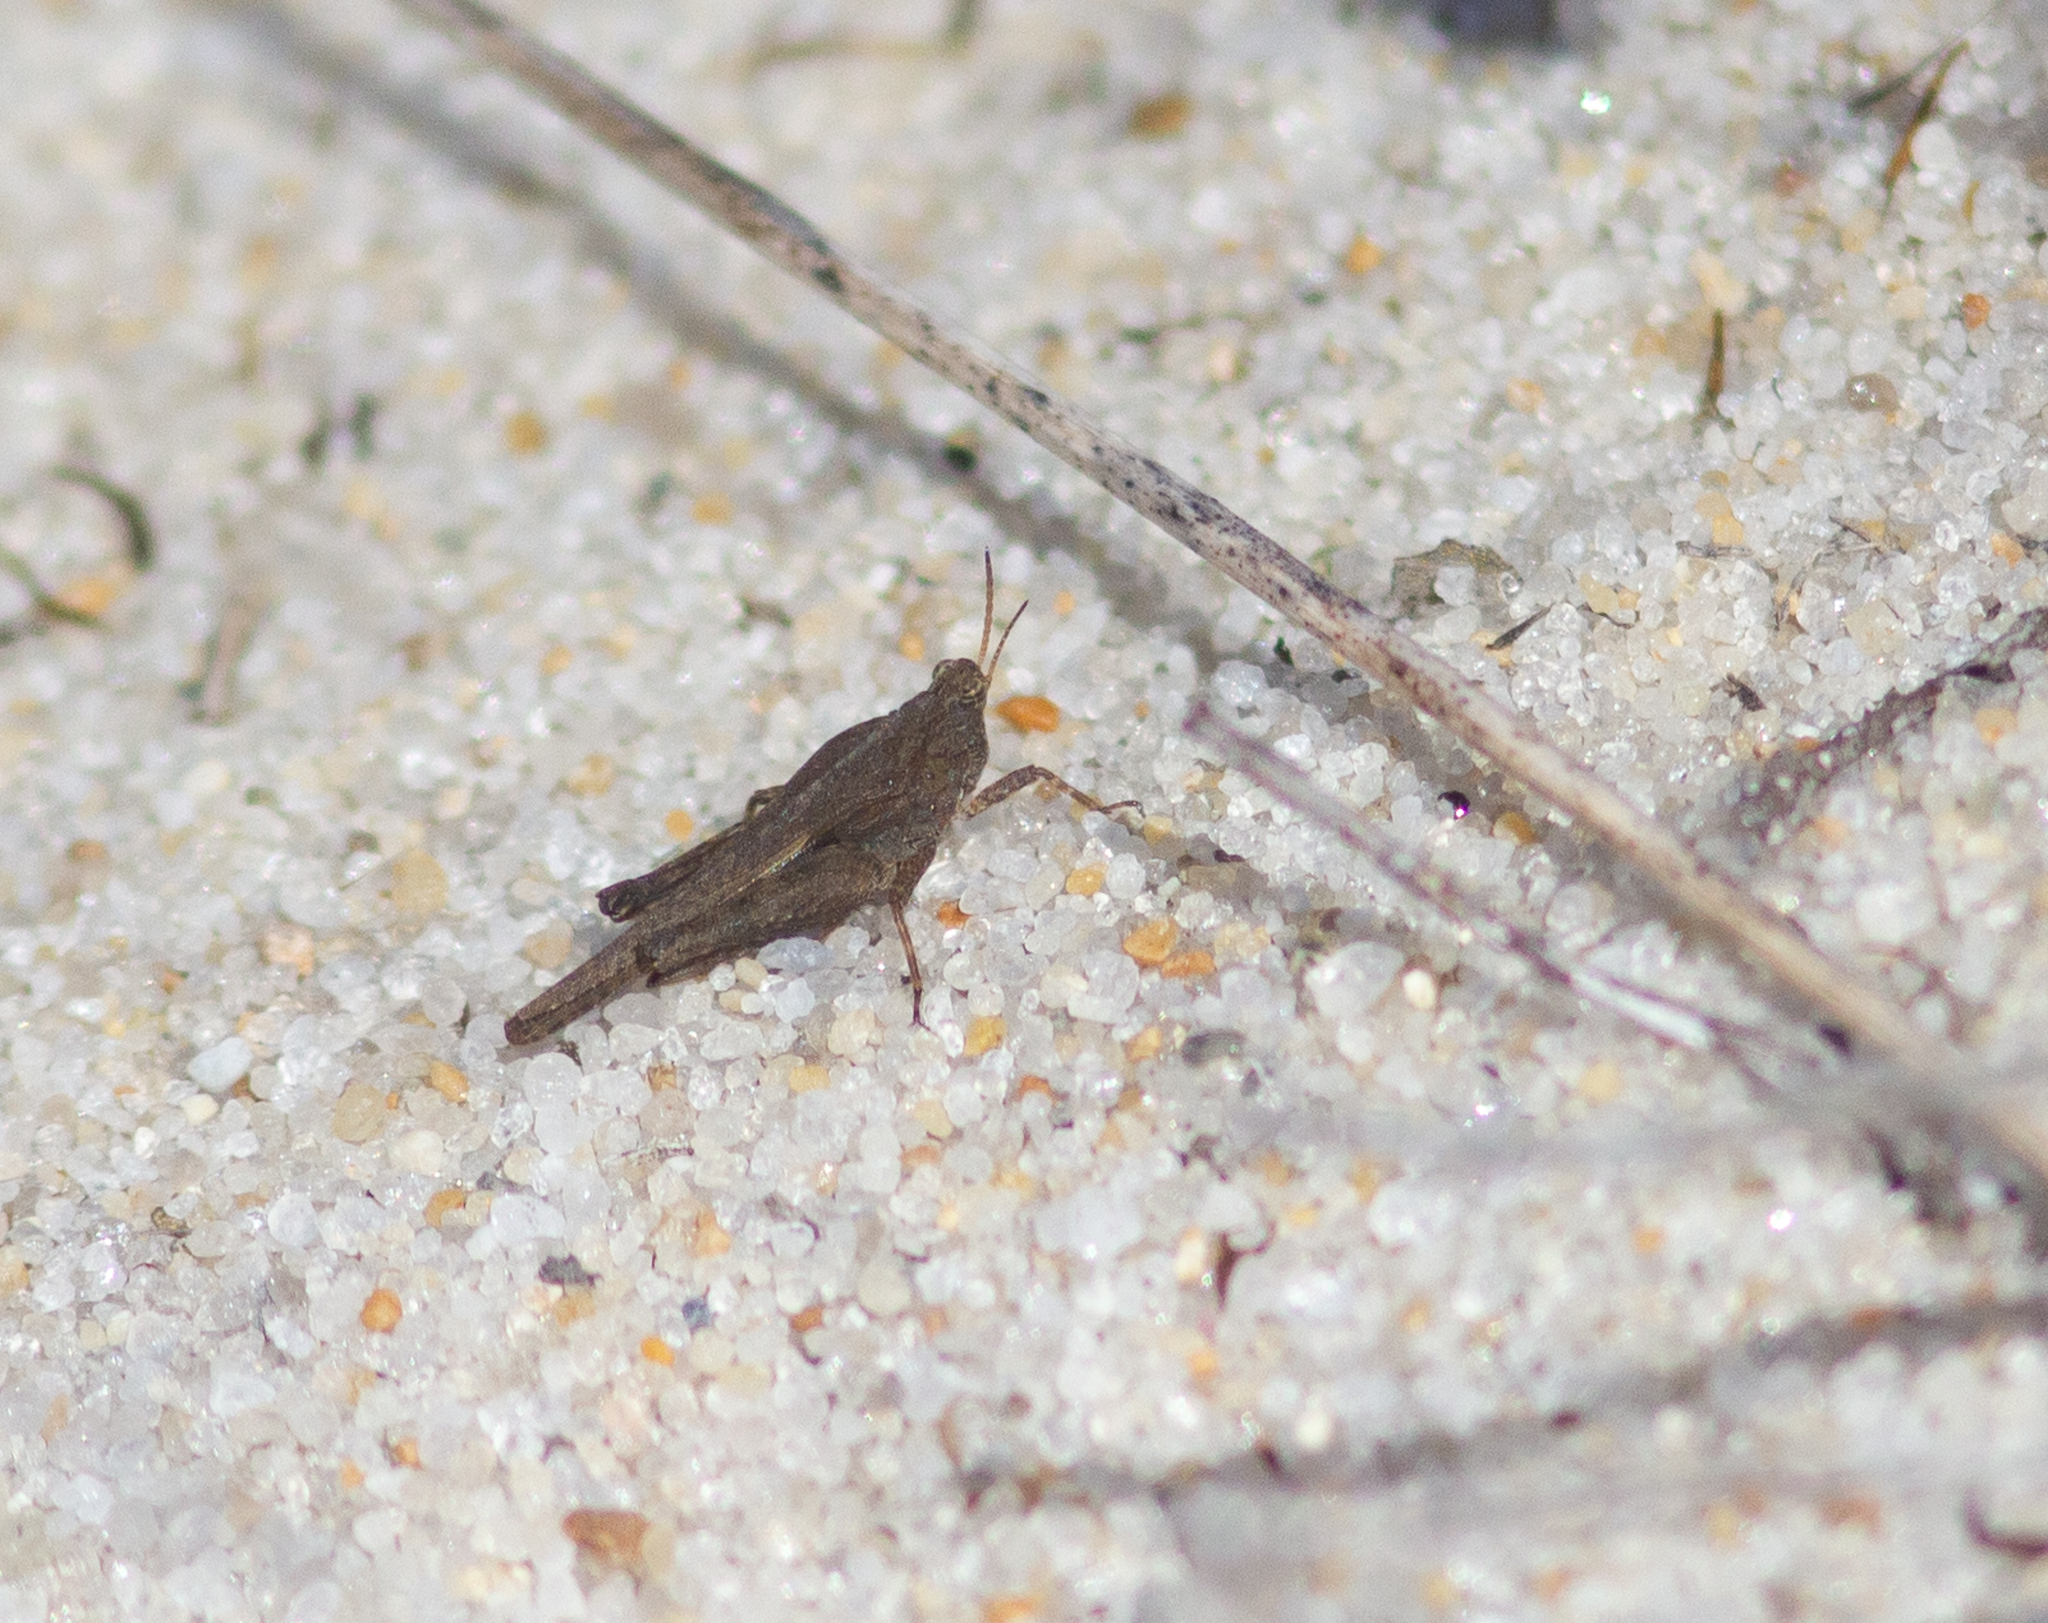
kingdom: Animalia
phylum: Arthropoda
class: Insecta
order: Orthoptera
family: Tetrigidae
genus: Tetrix
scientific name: Tetrix subulata
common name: Slender ground-hopper
